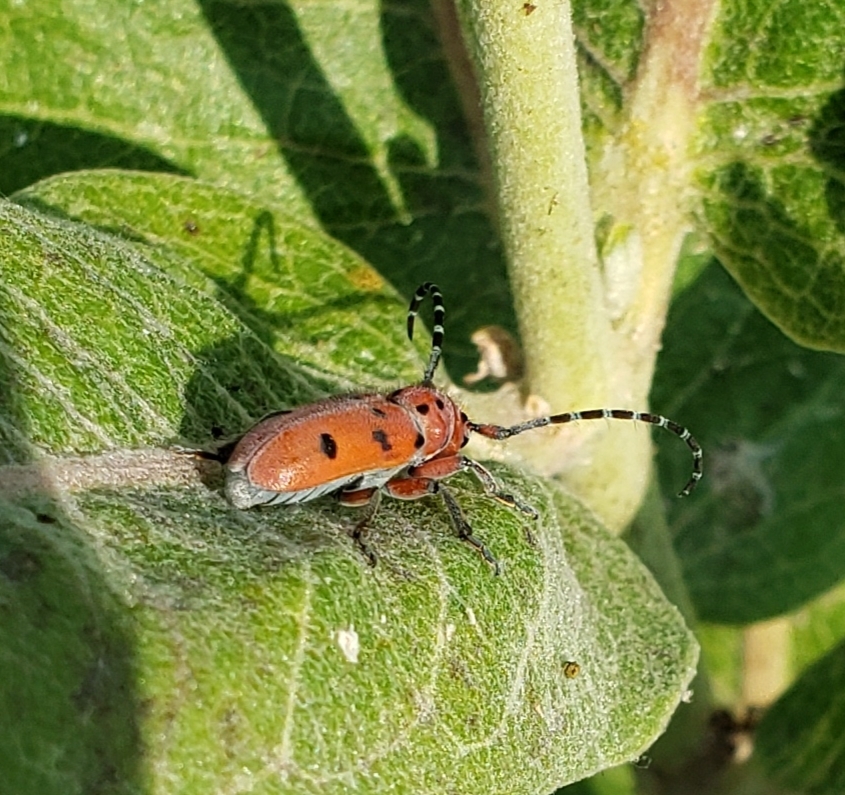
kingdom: Animalia
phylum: Arthropoda
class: Insecta
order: Coleoptera
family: Cerambycidae
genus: Tetraopes
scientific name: Tetraopes femoratus
